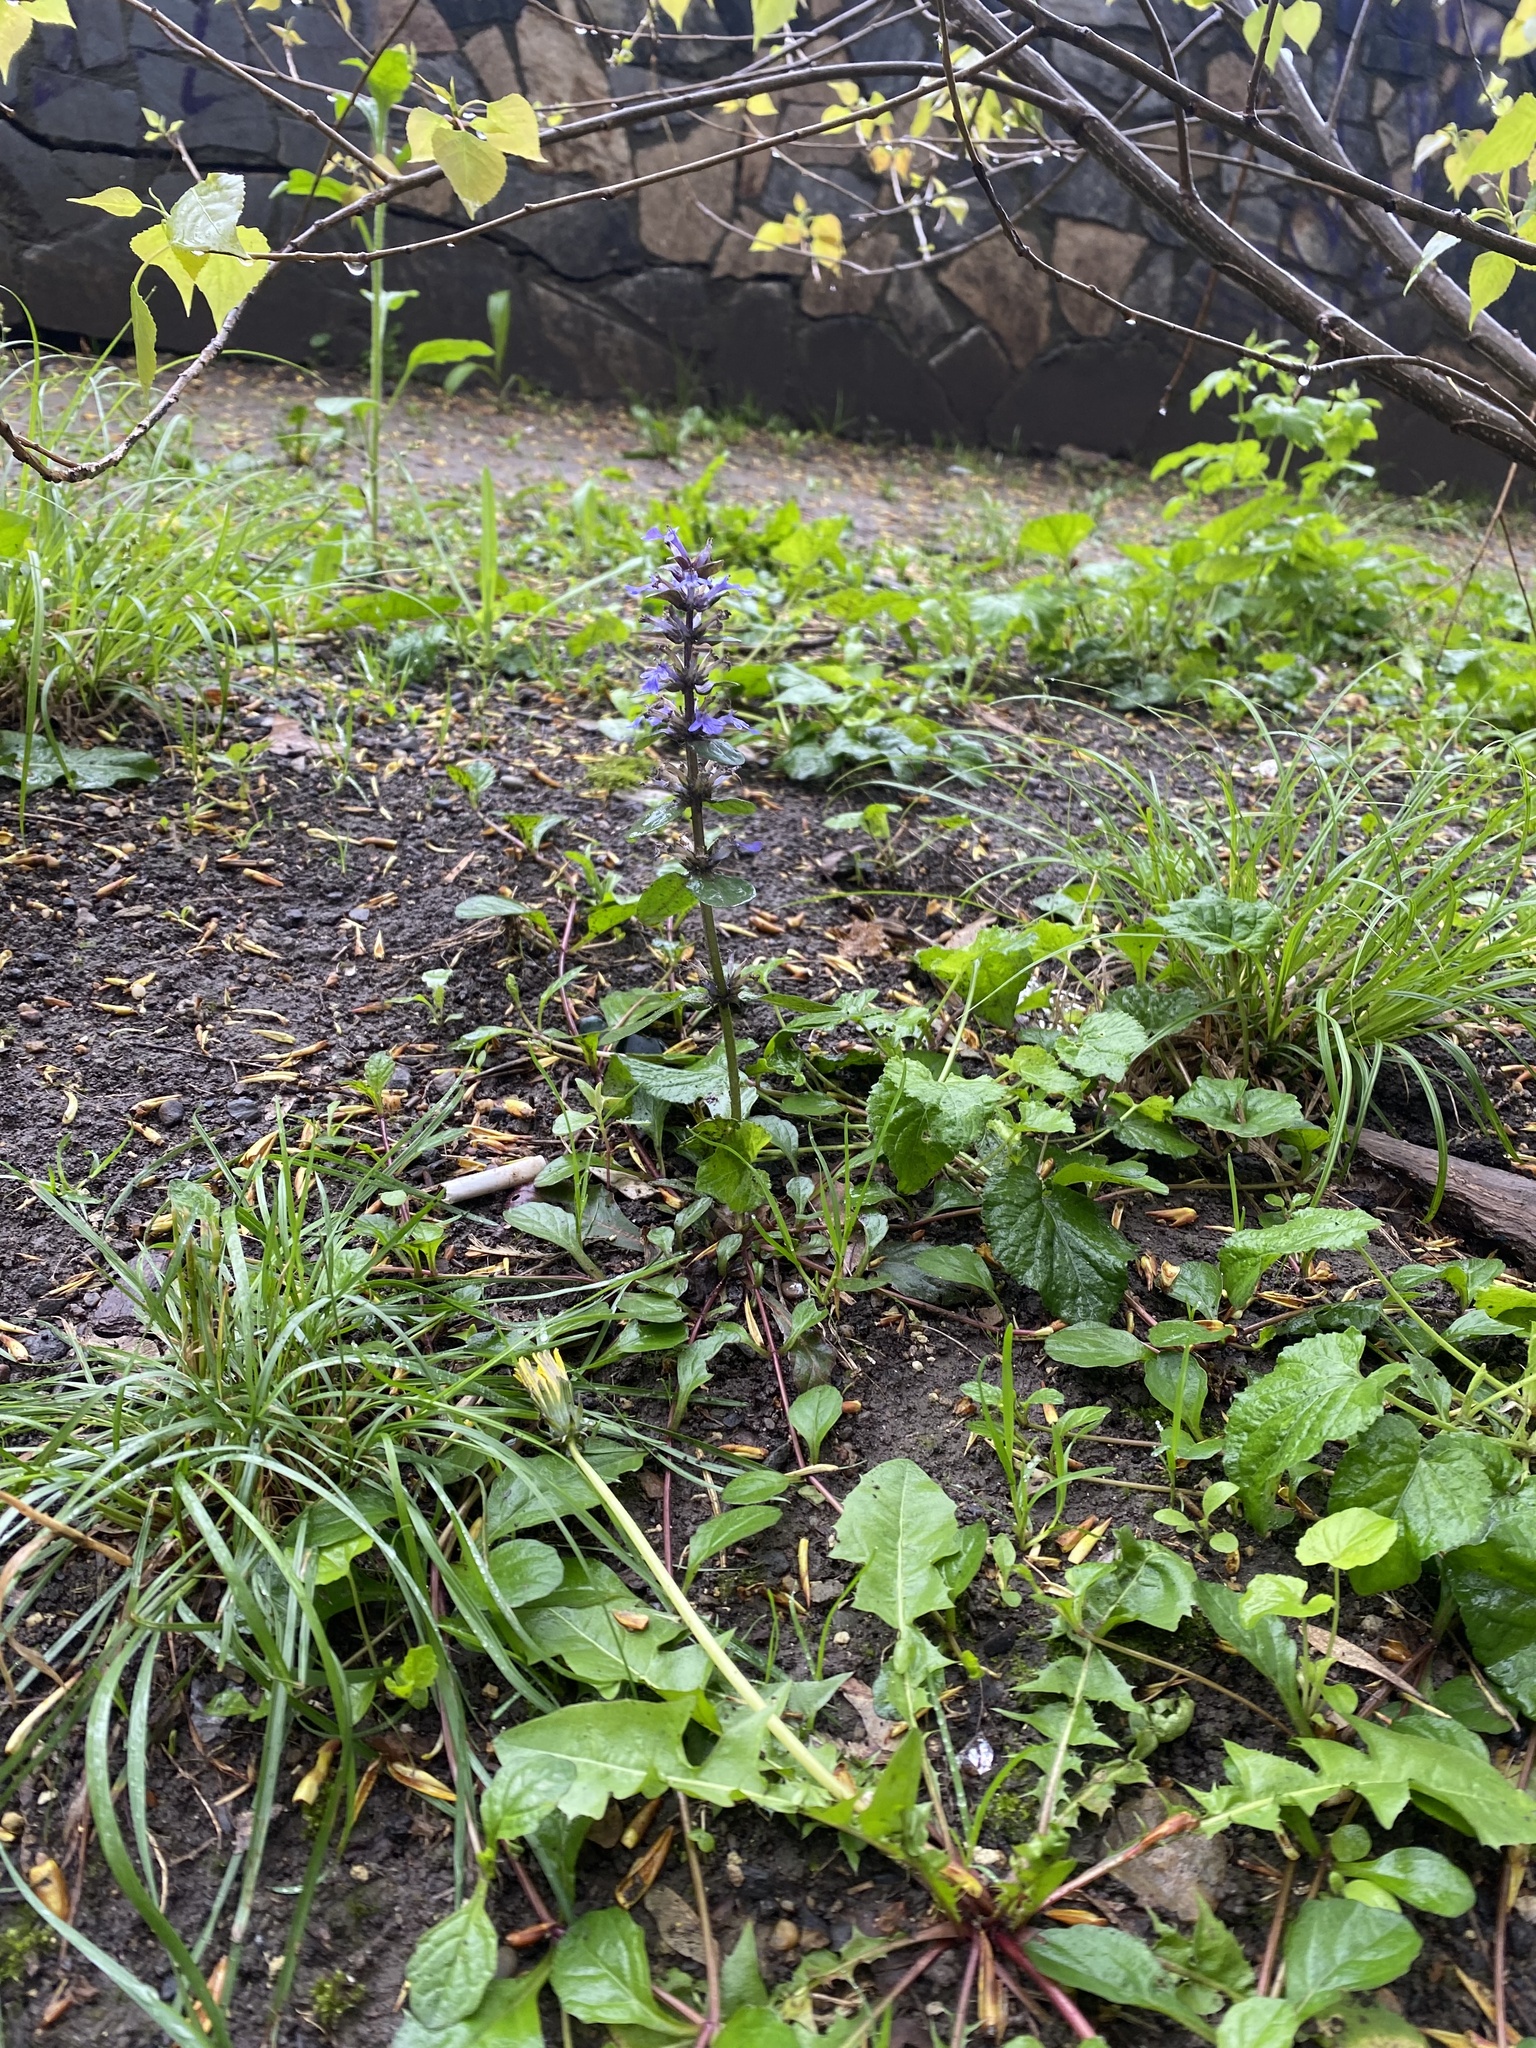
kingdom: Plantae
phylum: Tracheophyta
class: Magnoliopsida
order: Lamiales
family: Lamiaceae
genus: Ajuga
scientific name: Ajuga reptans
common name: Bugle
